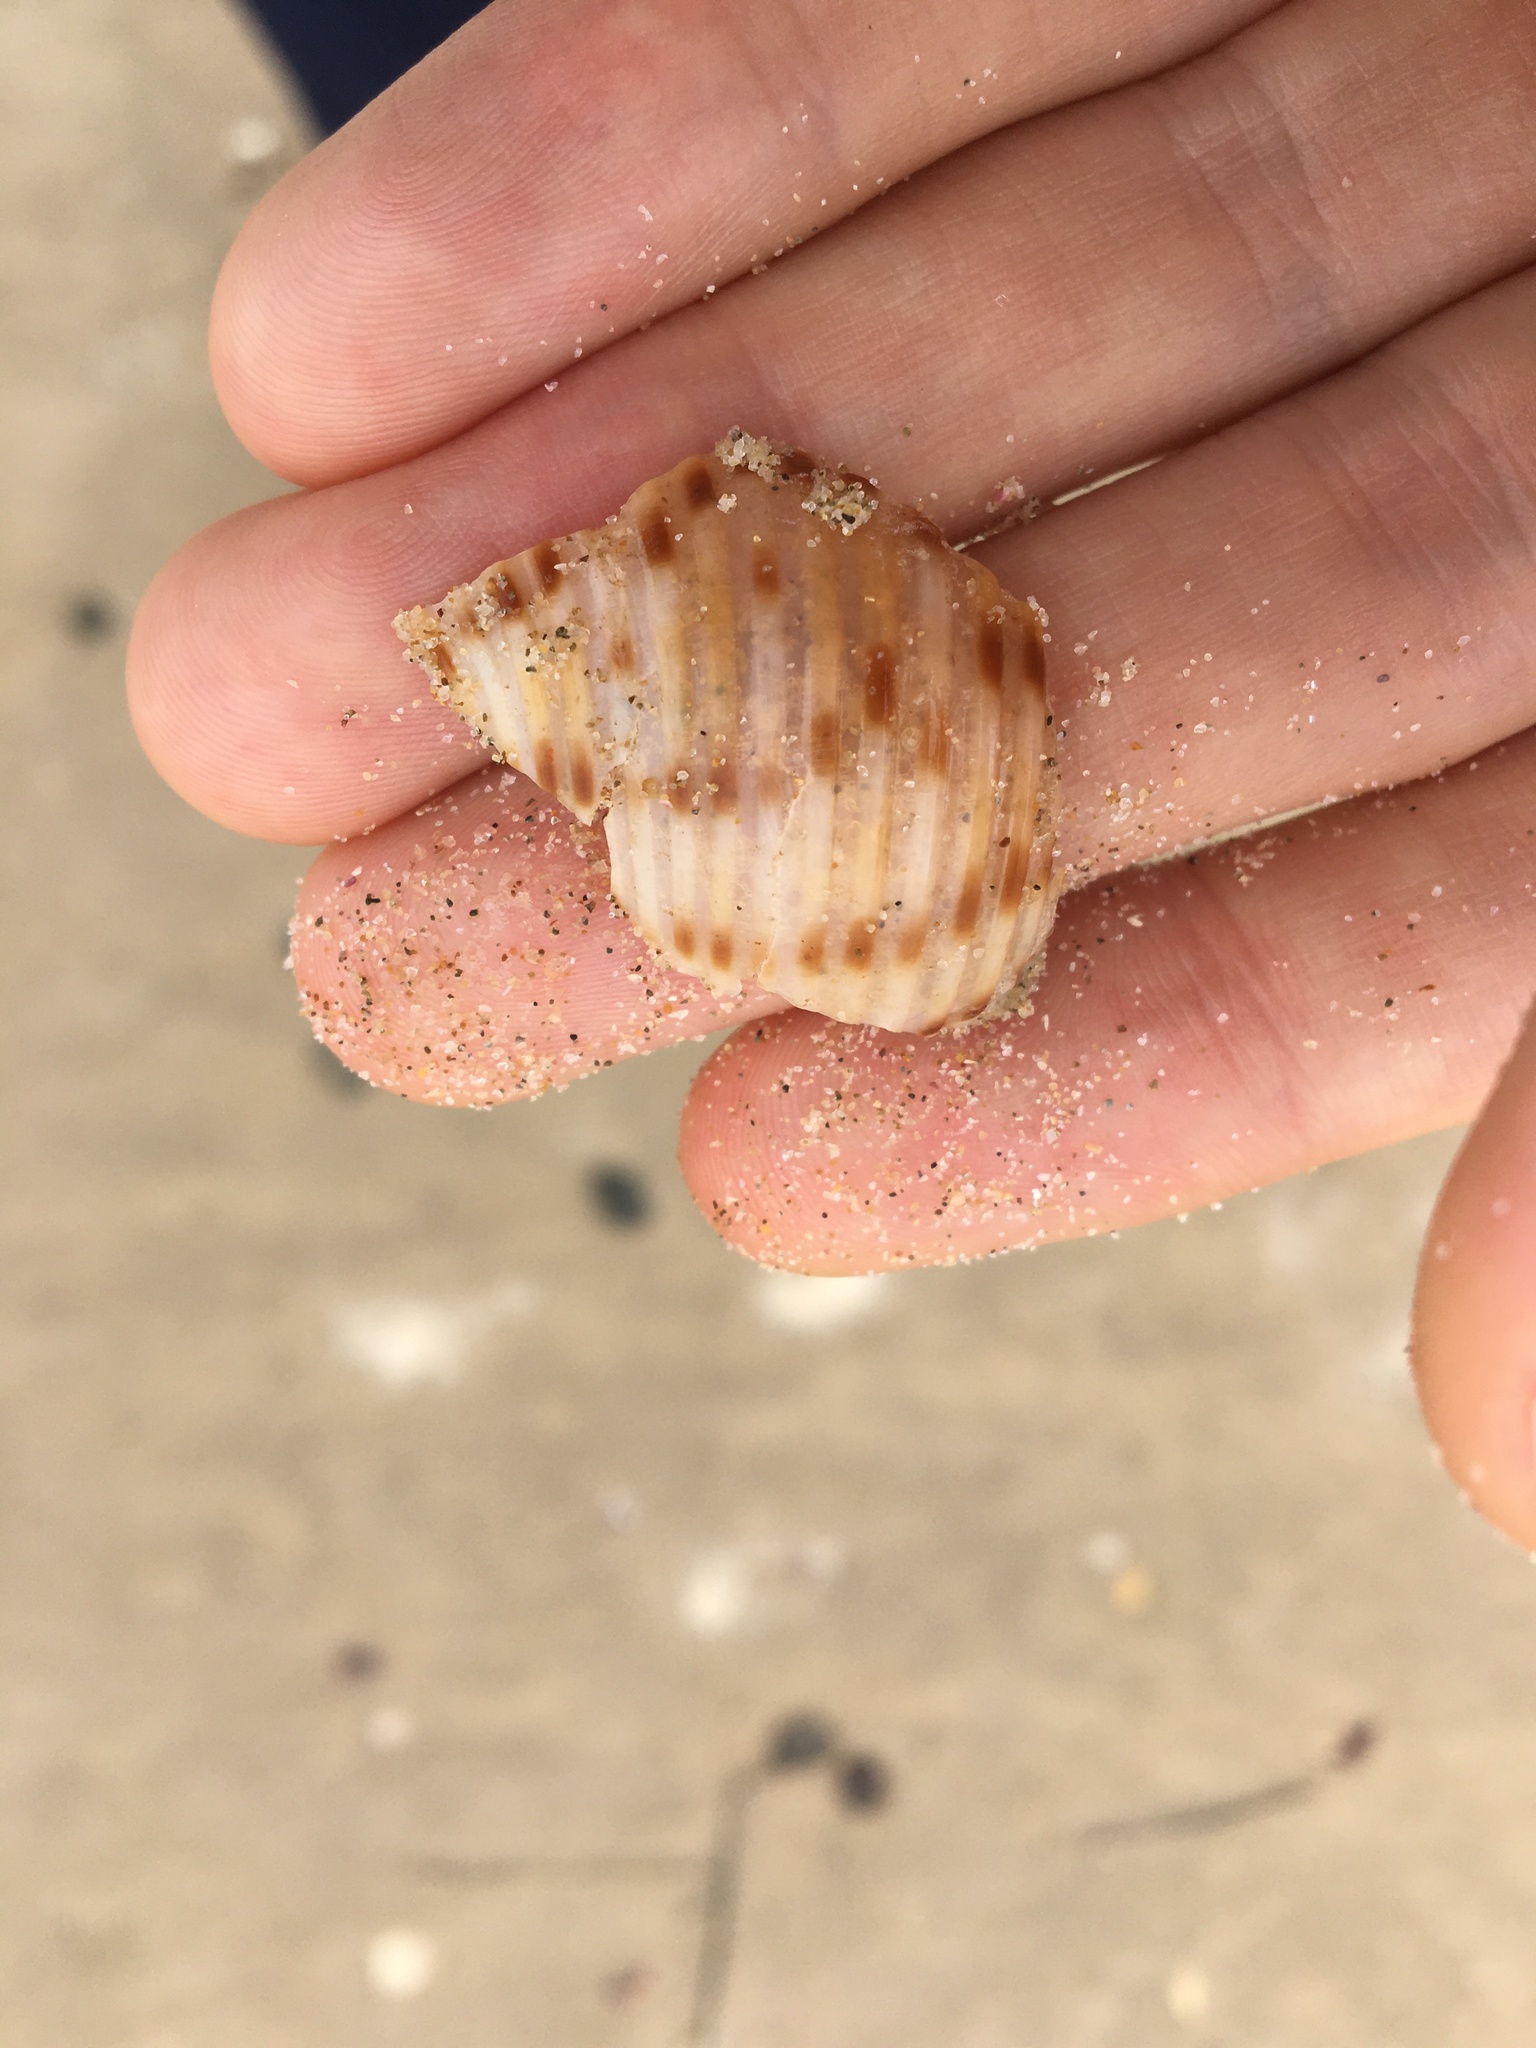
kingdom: Animalia
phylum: Mollusca
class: Gastropoda
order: Littorinimorpha
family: Tonnidae
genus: Tonna
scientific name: Tonna tankervillii
